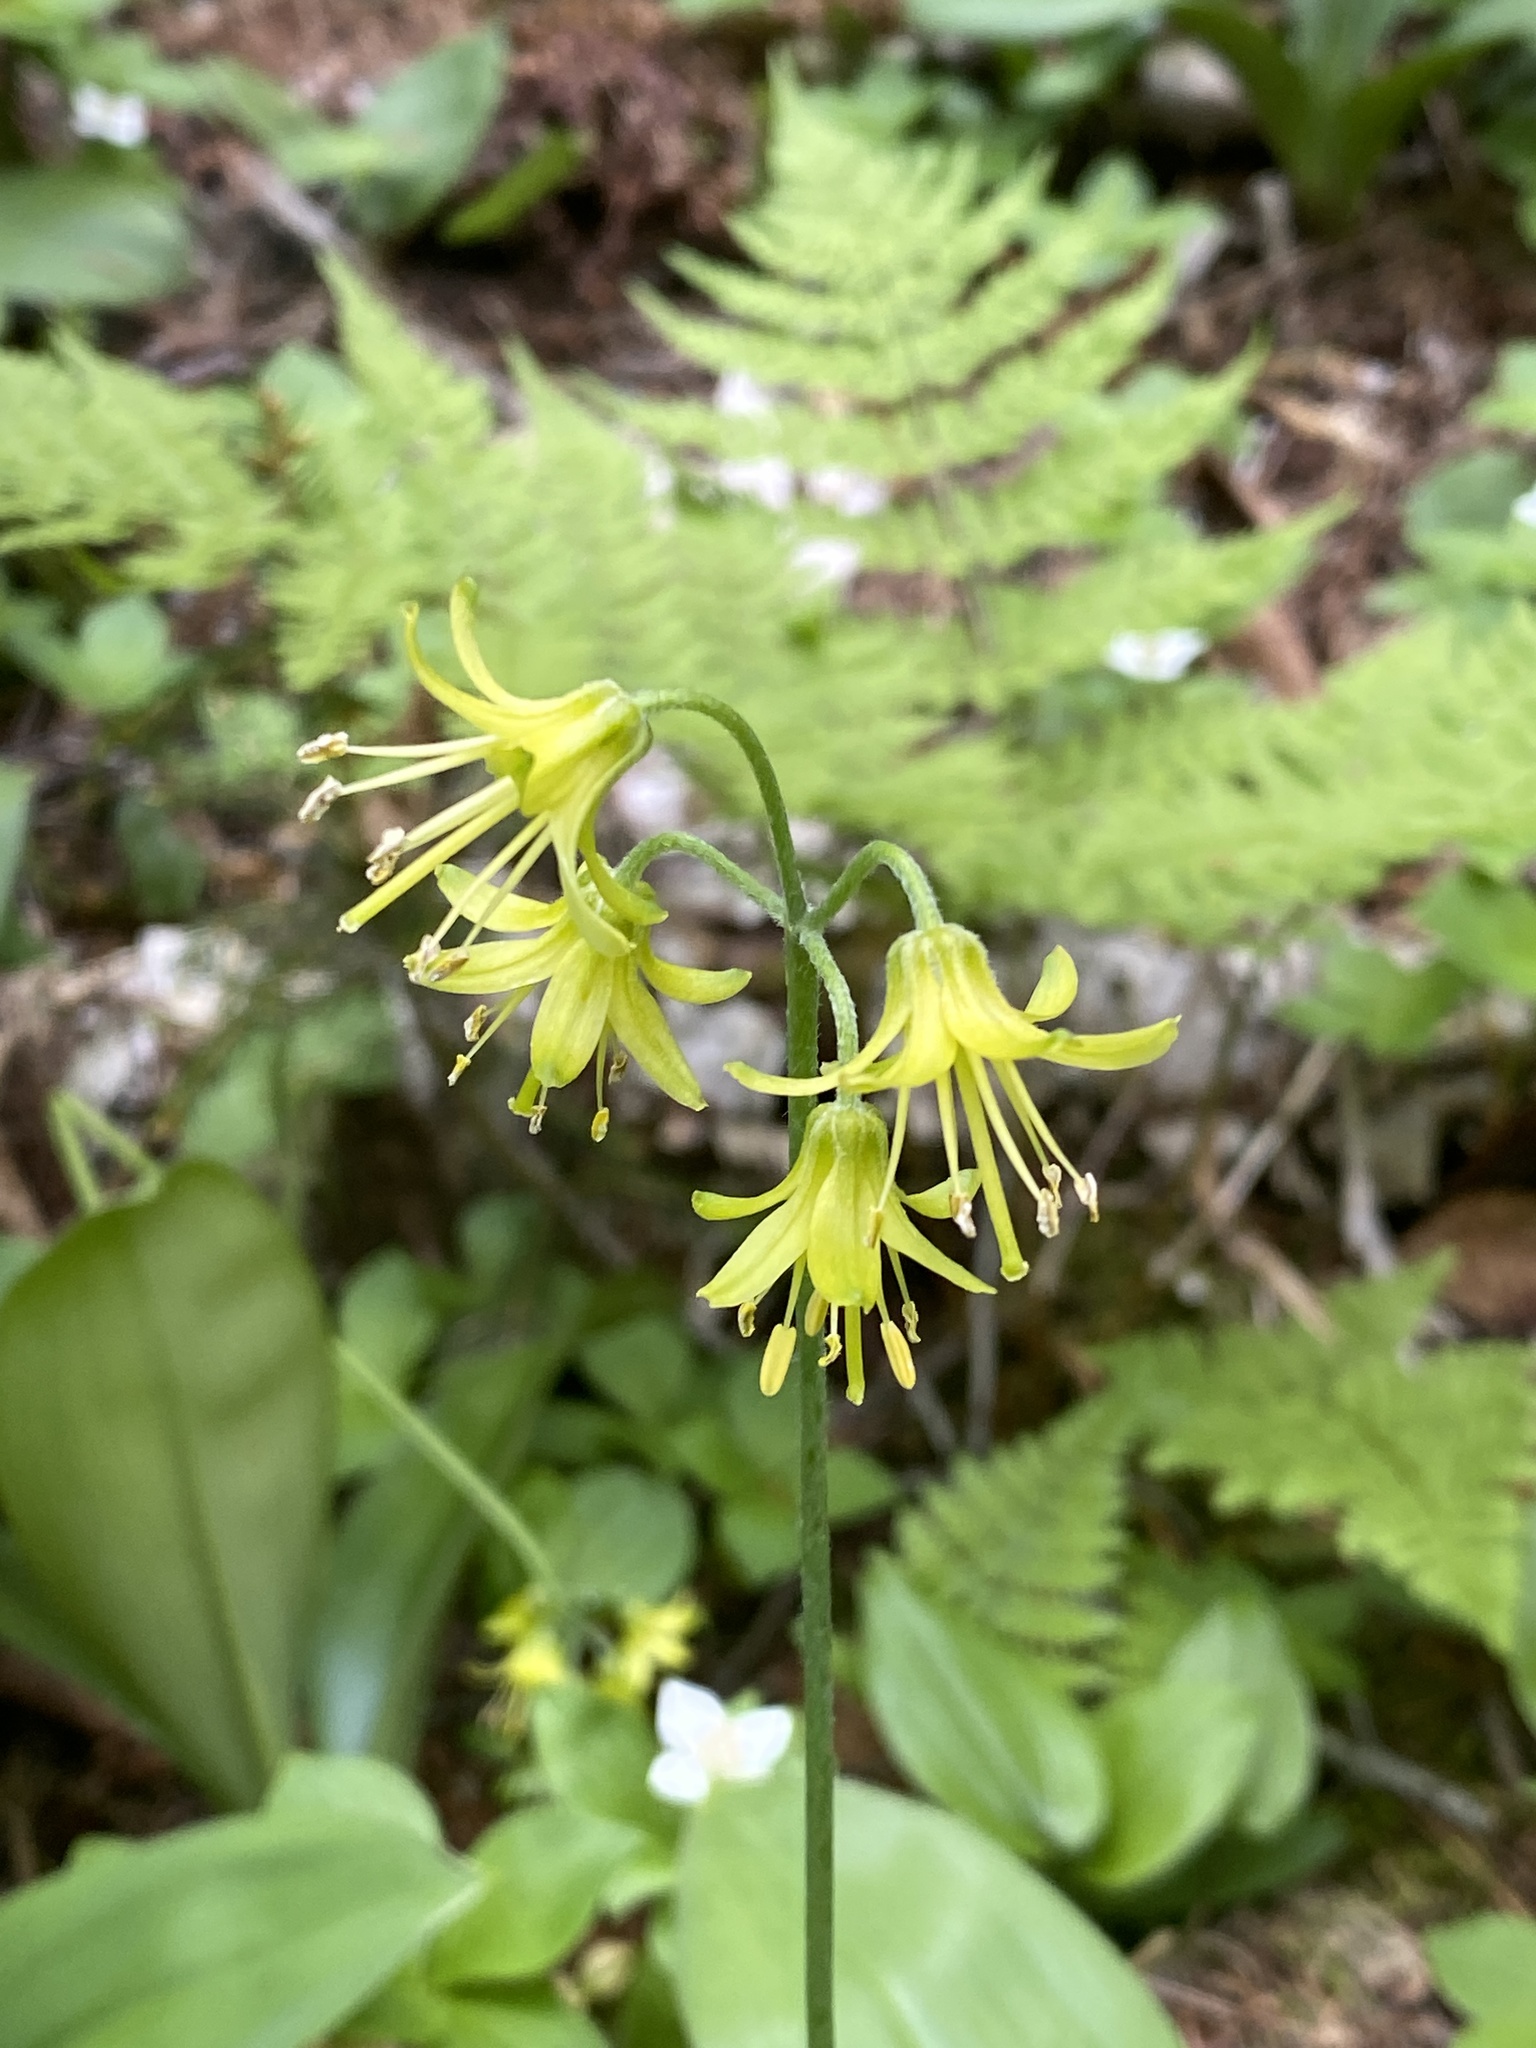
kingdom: Plantae
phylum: Tracheophyta
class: Liliopsida
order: Liliales
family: Liliaceae
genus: Clintonia
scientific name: Clintonia borealis
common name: Yellow clintonia
